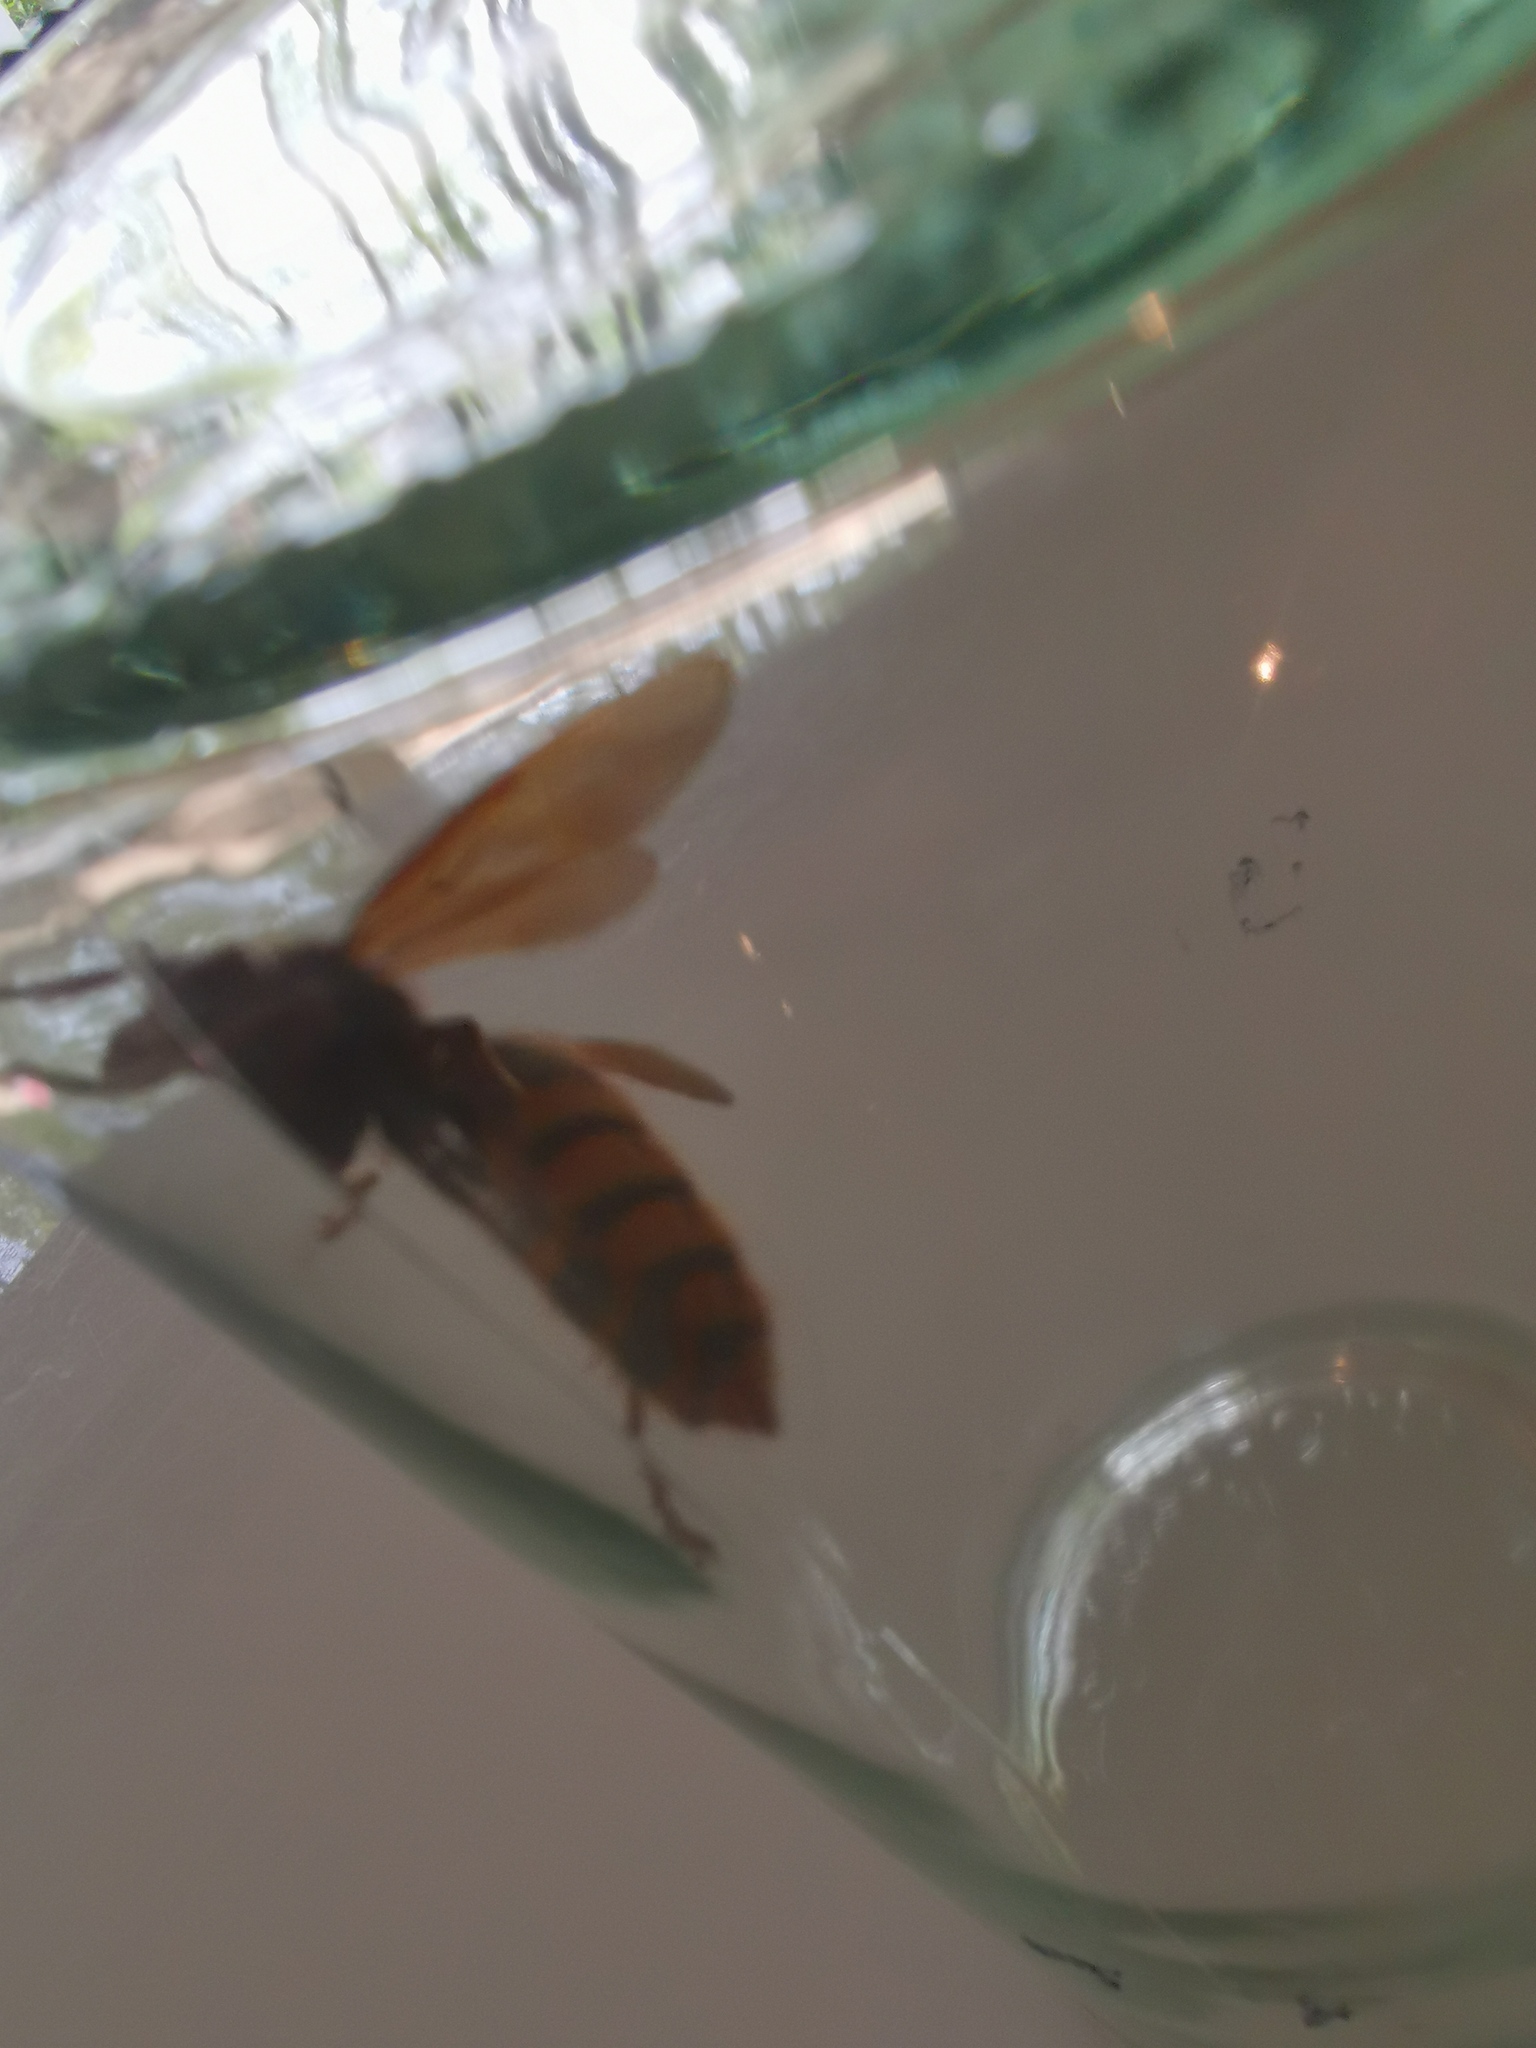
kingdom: Animalia
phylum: Arthropoda
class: Insecta
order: Hymenoptera
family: Vespidae
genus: Vespa
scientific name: Vespa crabro
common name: Hornet
